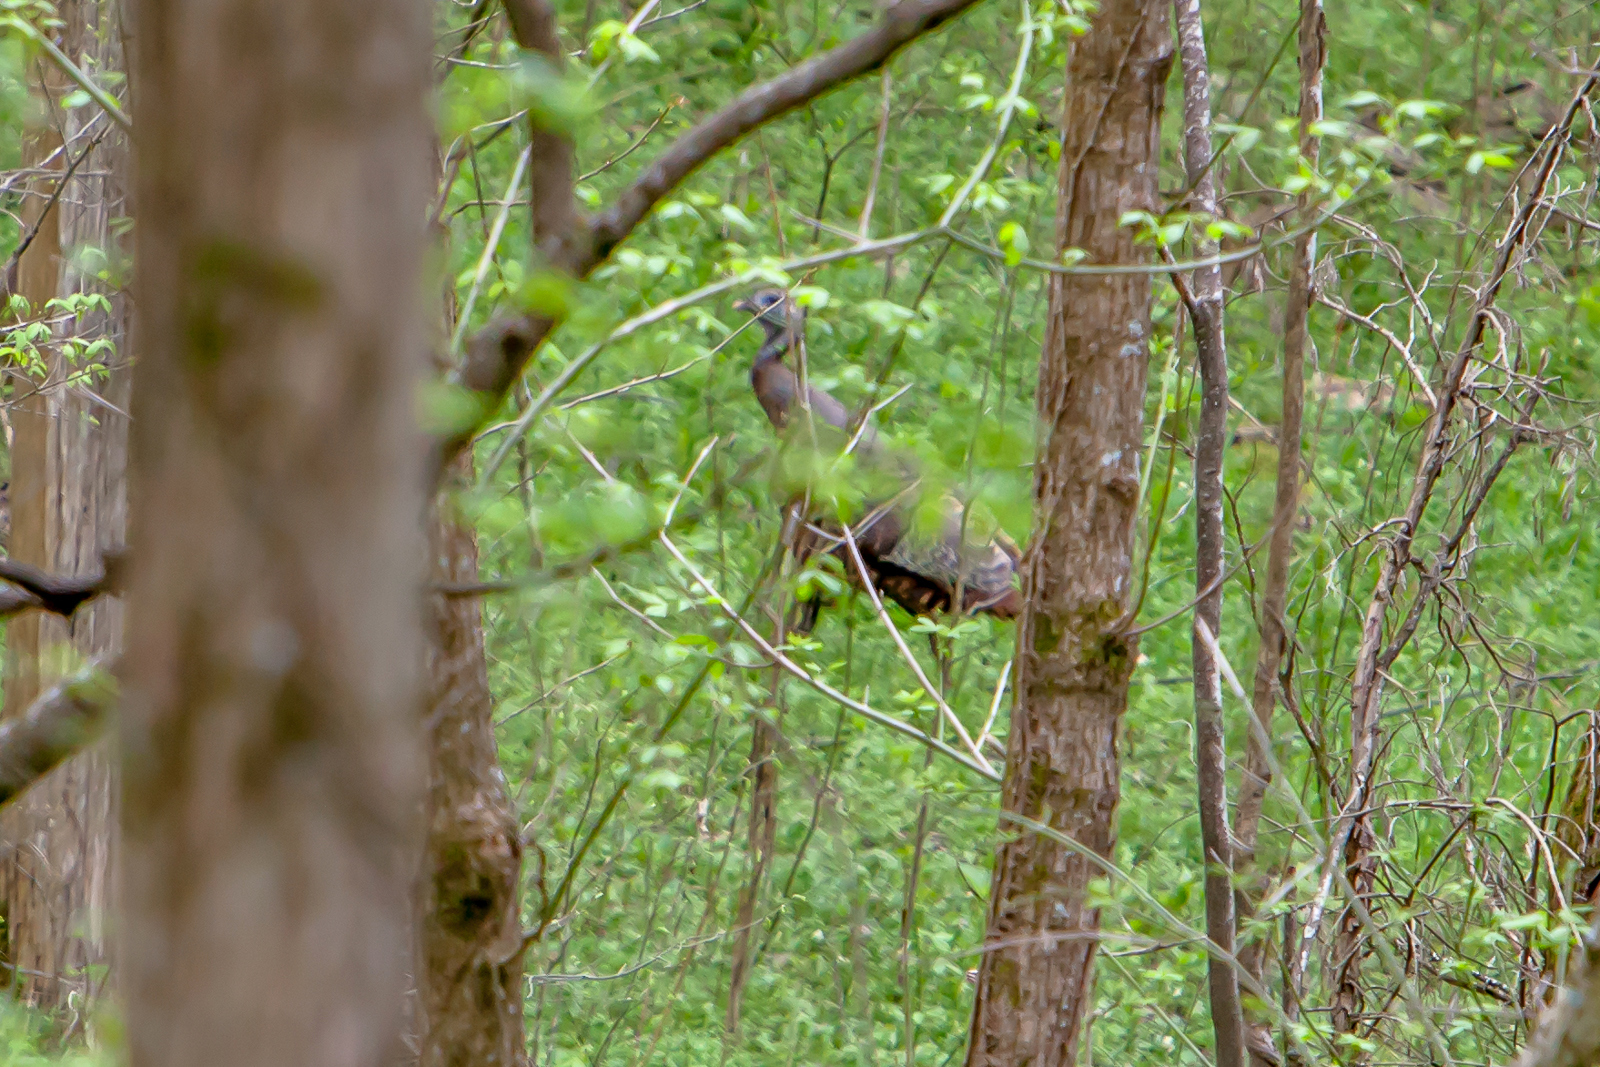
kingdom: Animalia
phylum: Chordata
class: Aves
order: Galliformes
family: Phasianidae
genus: Meleagris
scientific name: Meleagris gallopavo
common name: Wild turkey
